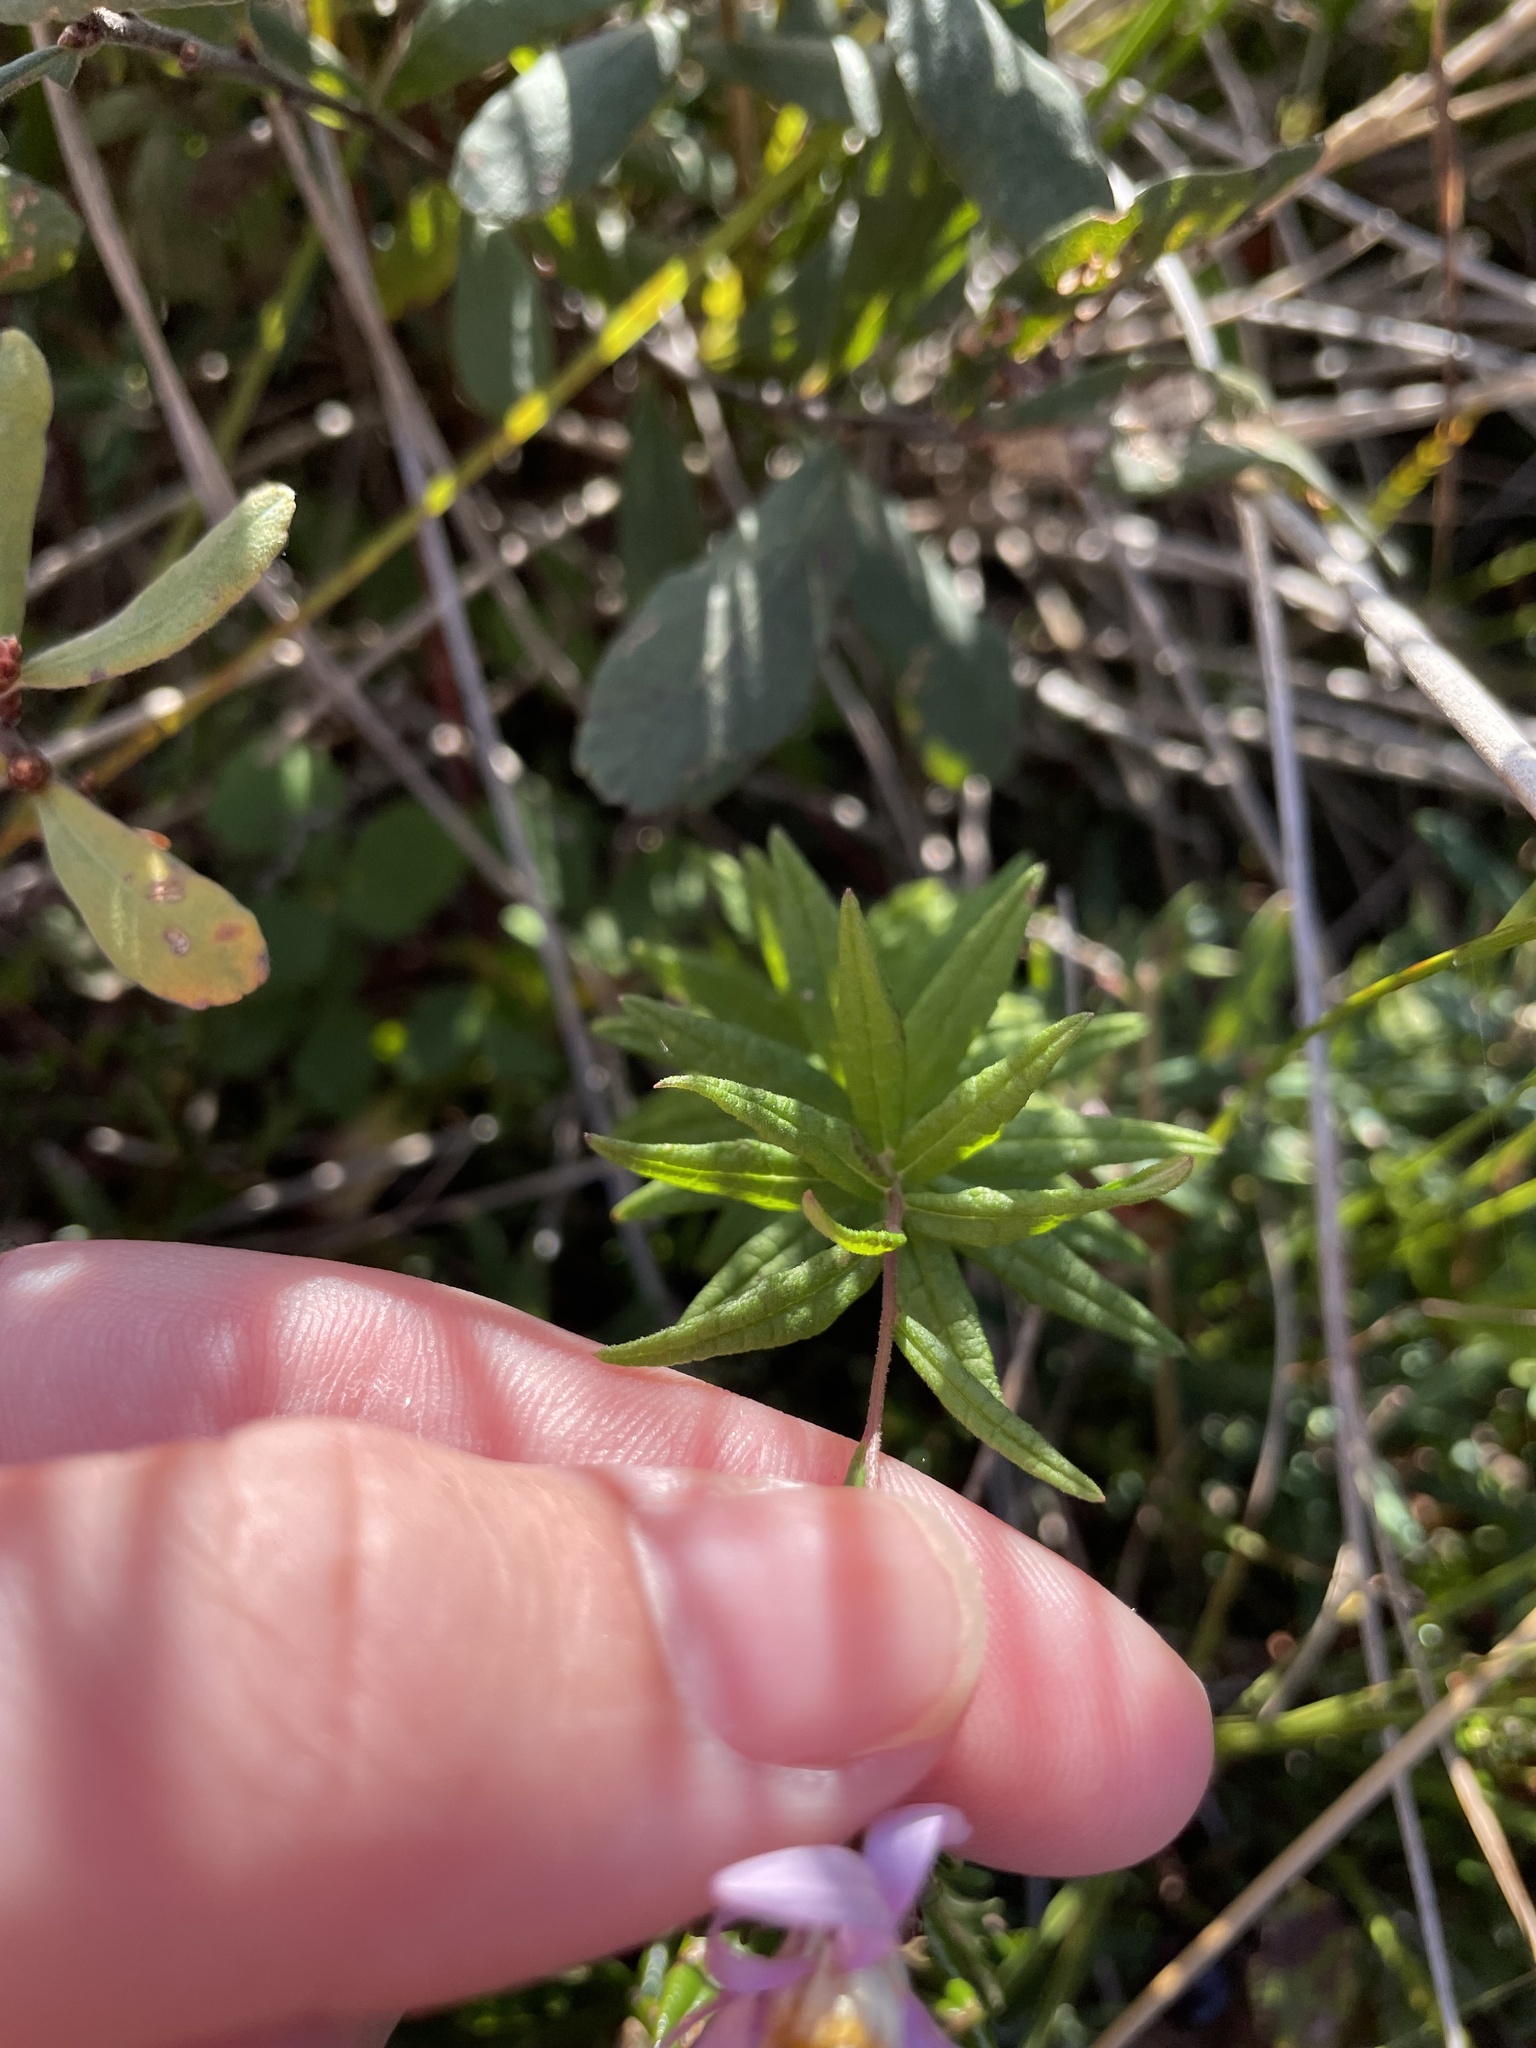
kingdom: Plantae
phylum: Tracheophyta
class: Magnoliopsida
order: Asterales
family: Asteraceae
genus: Oclemena
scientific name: Oclemena nemoralis
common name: Bog aster
